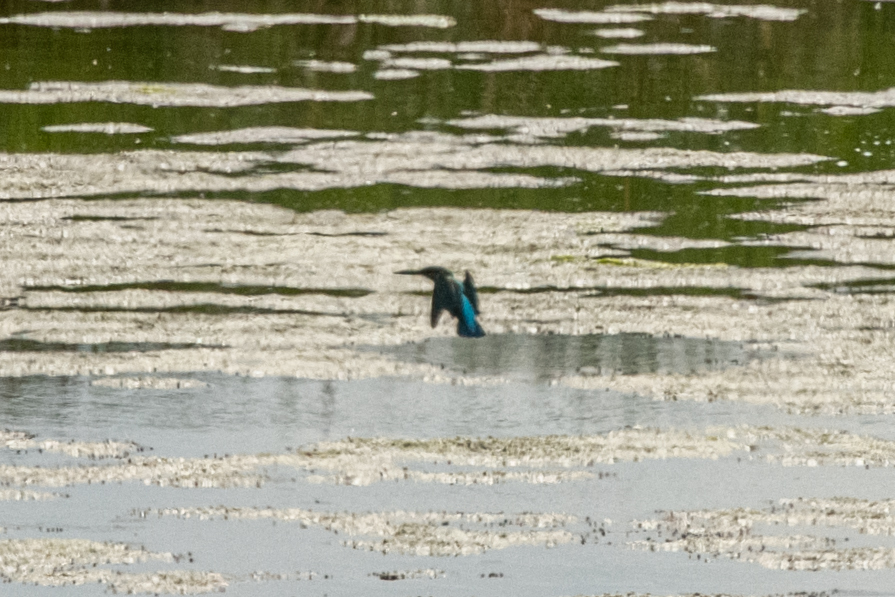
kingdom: Animalia
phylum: Chordata
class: Aves
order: Coraciiformes
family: Alcedinidae
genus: Alcedo
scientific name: Alcedo atthis
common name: Common kingfisher
